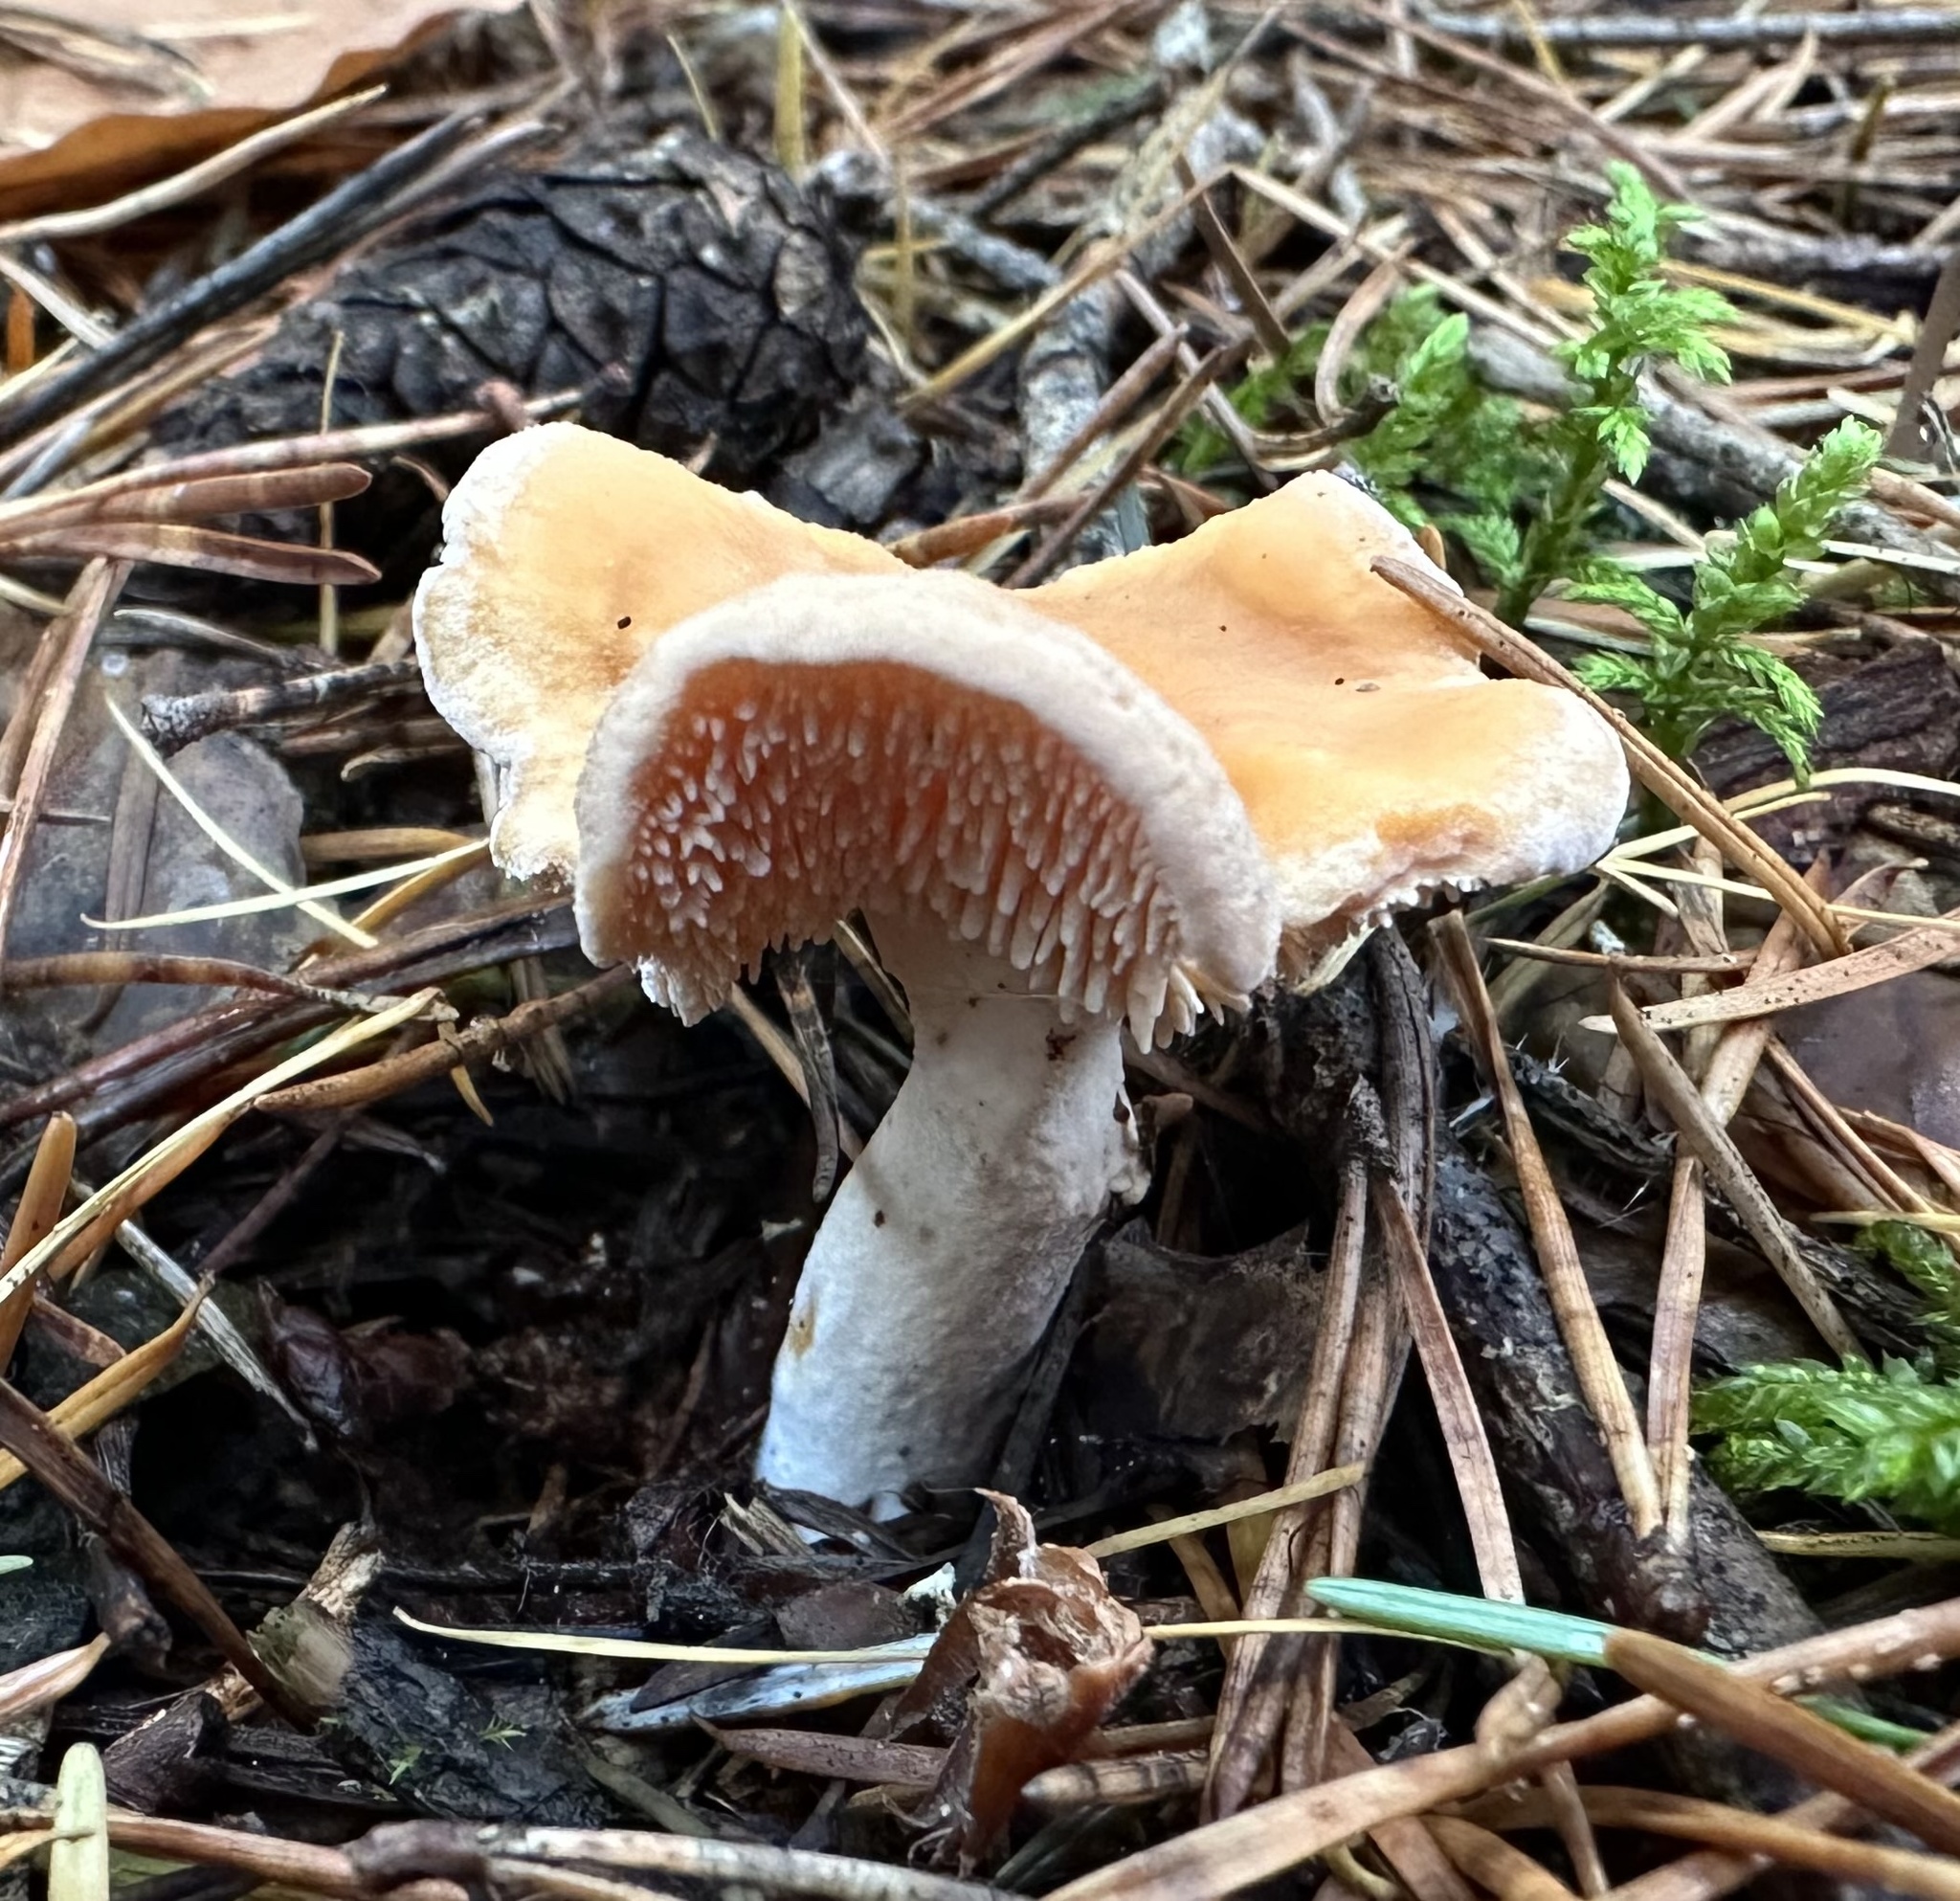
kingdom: Fungi
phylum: Basidiomycota
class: Agaricomycetes
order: Cantharellales
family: Hydnaceae
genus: Hydnum
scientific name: Hydnum repandum
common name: Wood hedgehog
